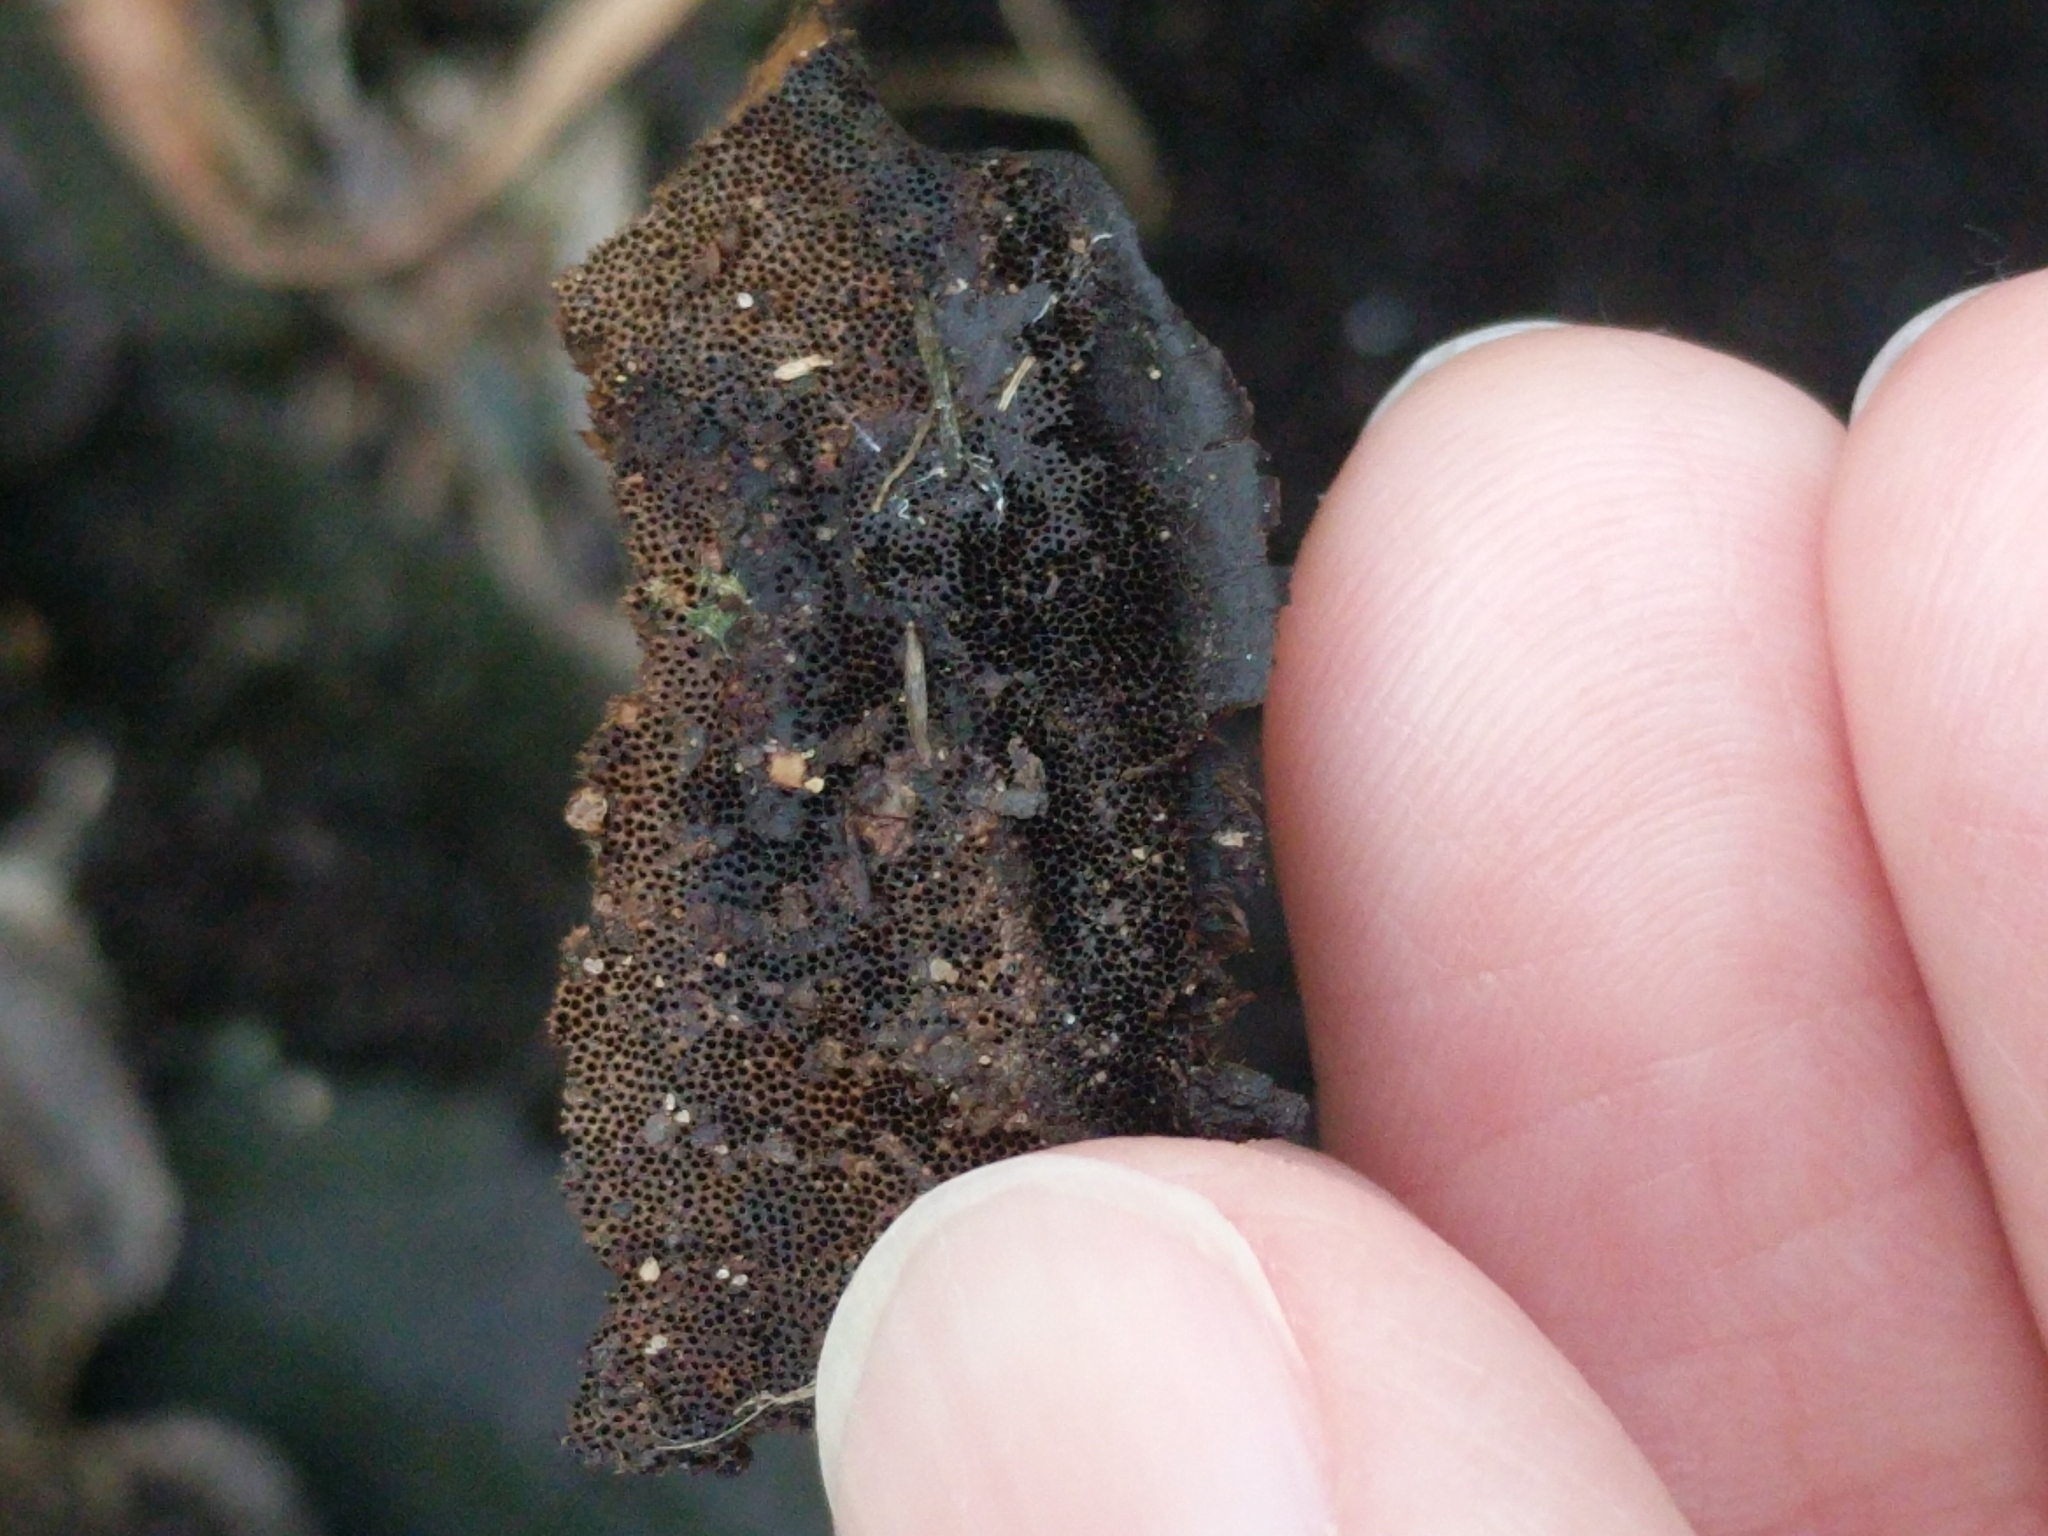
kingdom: Fungi
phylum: Basidiomycota
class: Agaricomycetes
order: Polyporales
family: Cerrenaceae
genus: Cerrena
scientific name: Cerrena hydnoides
